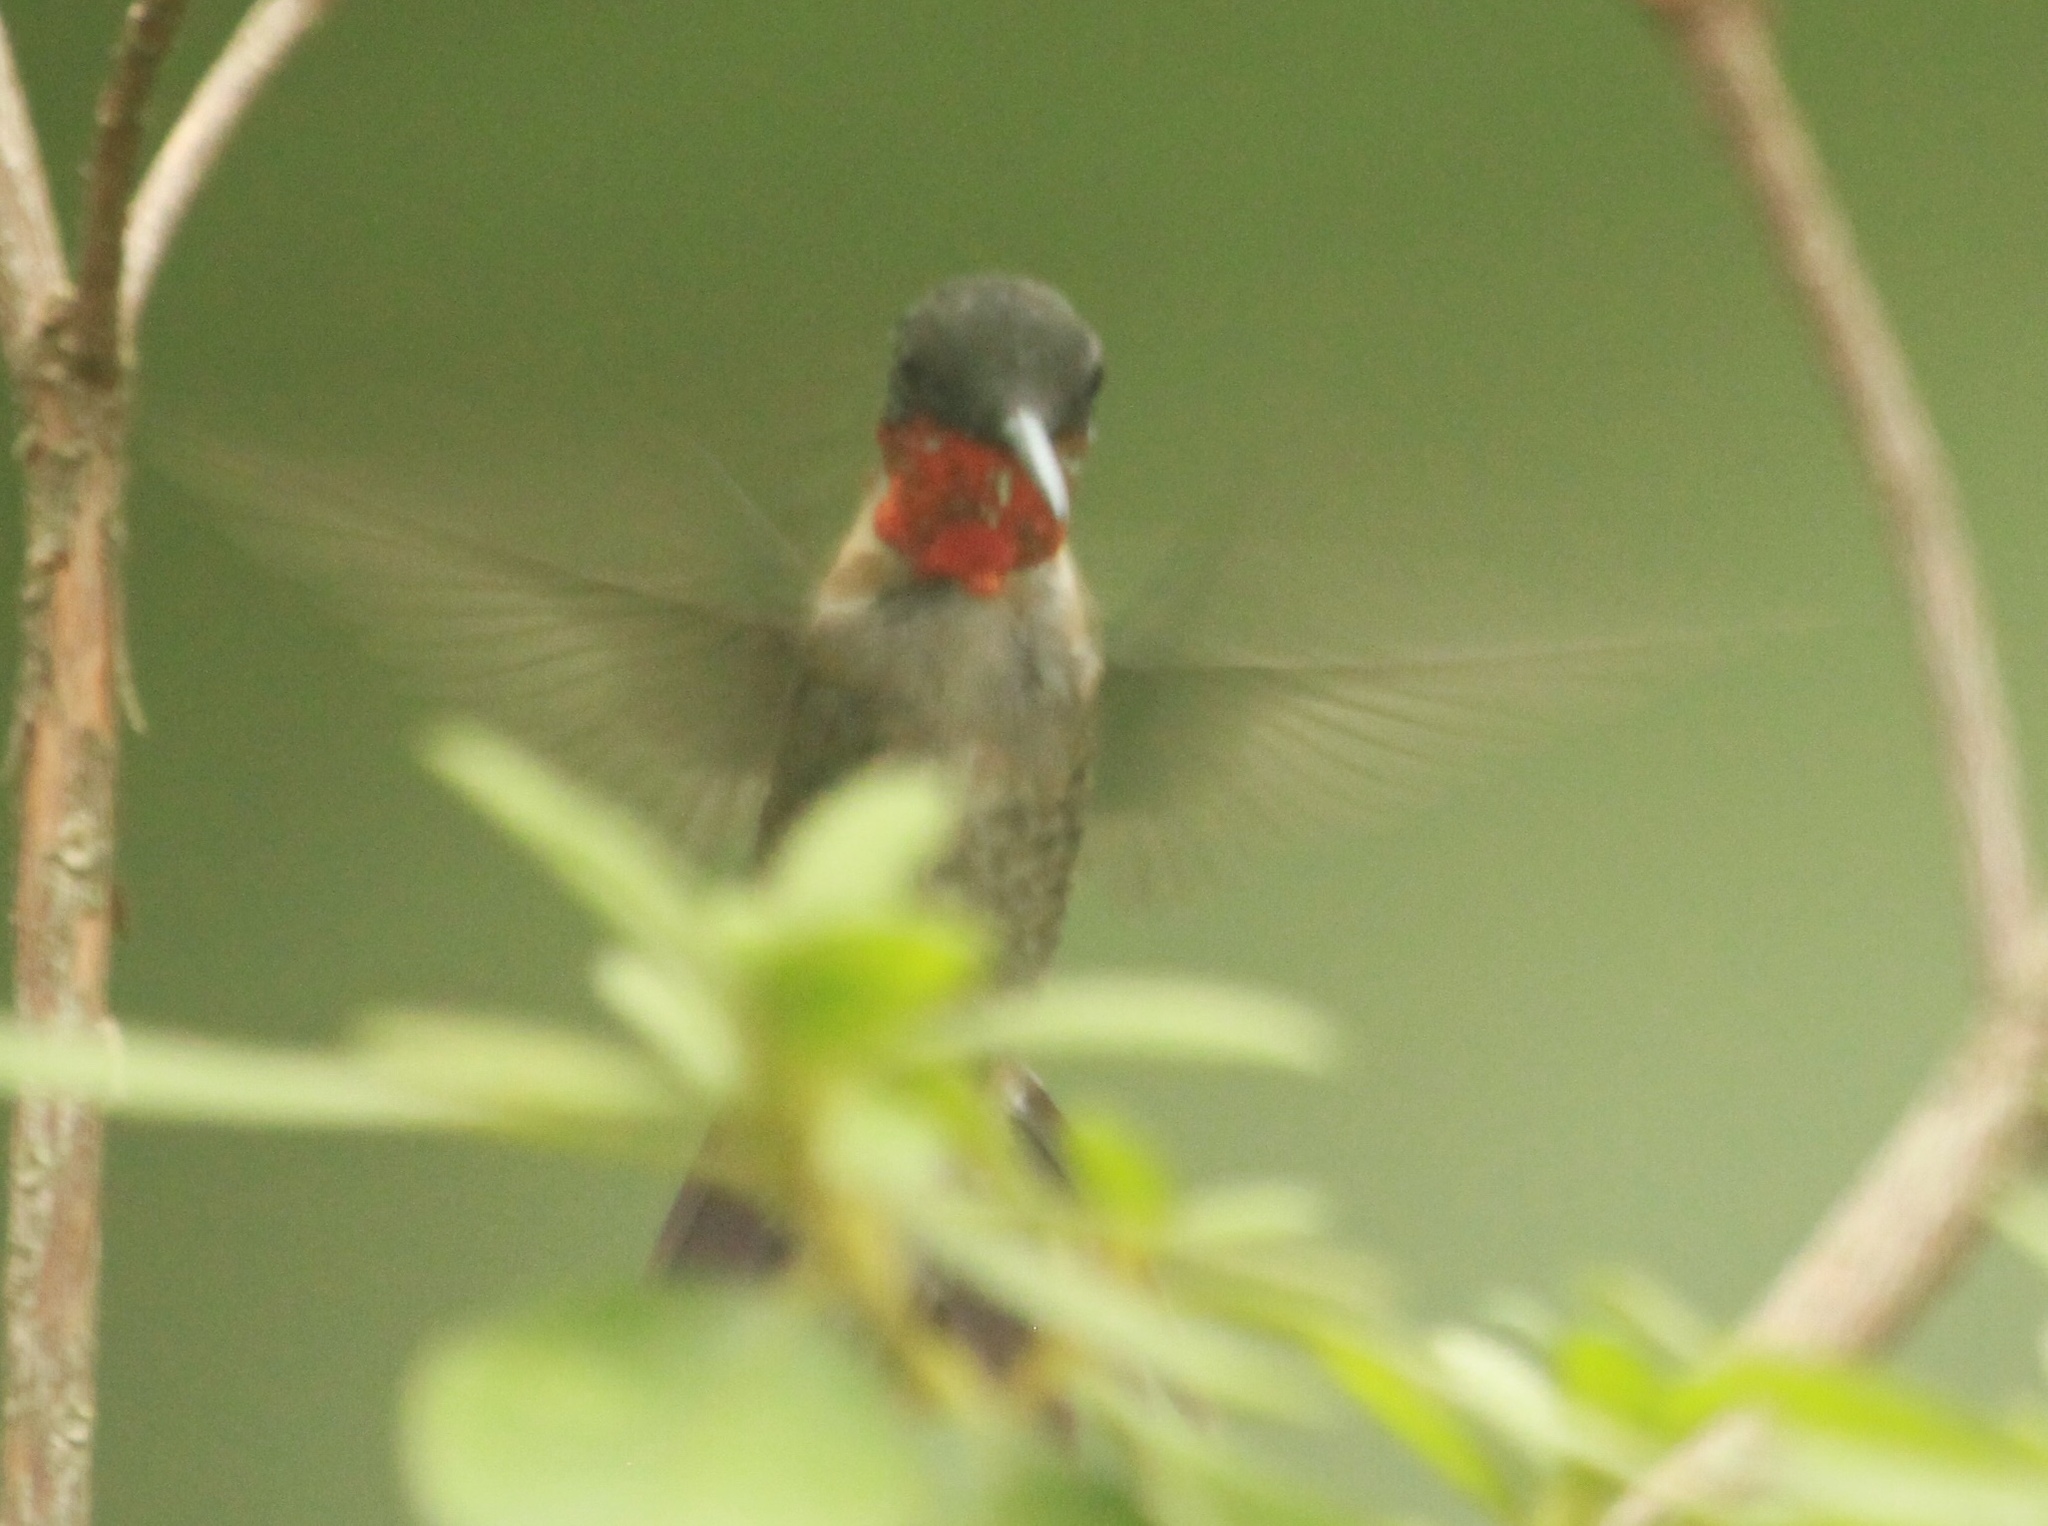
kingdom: Animalia
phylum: Chordata
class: Aves
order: Apodiformes
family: Trochilidae
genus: Archilochus
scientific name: Archilochus colubris
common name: Ruby-throated hummingbird
